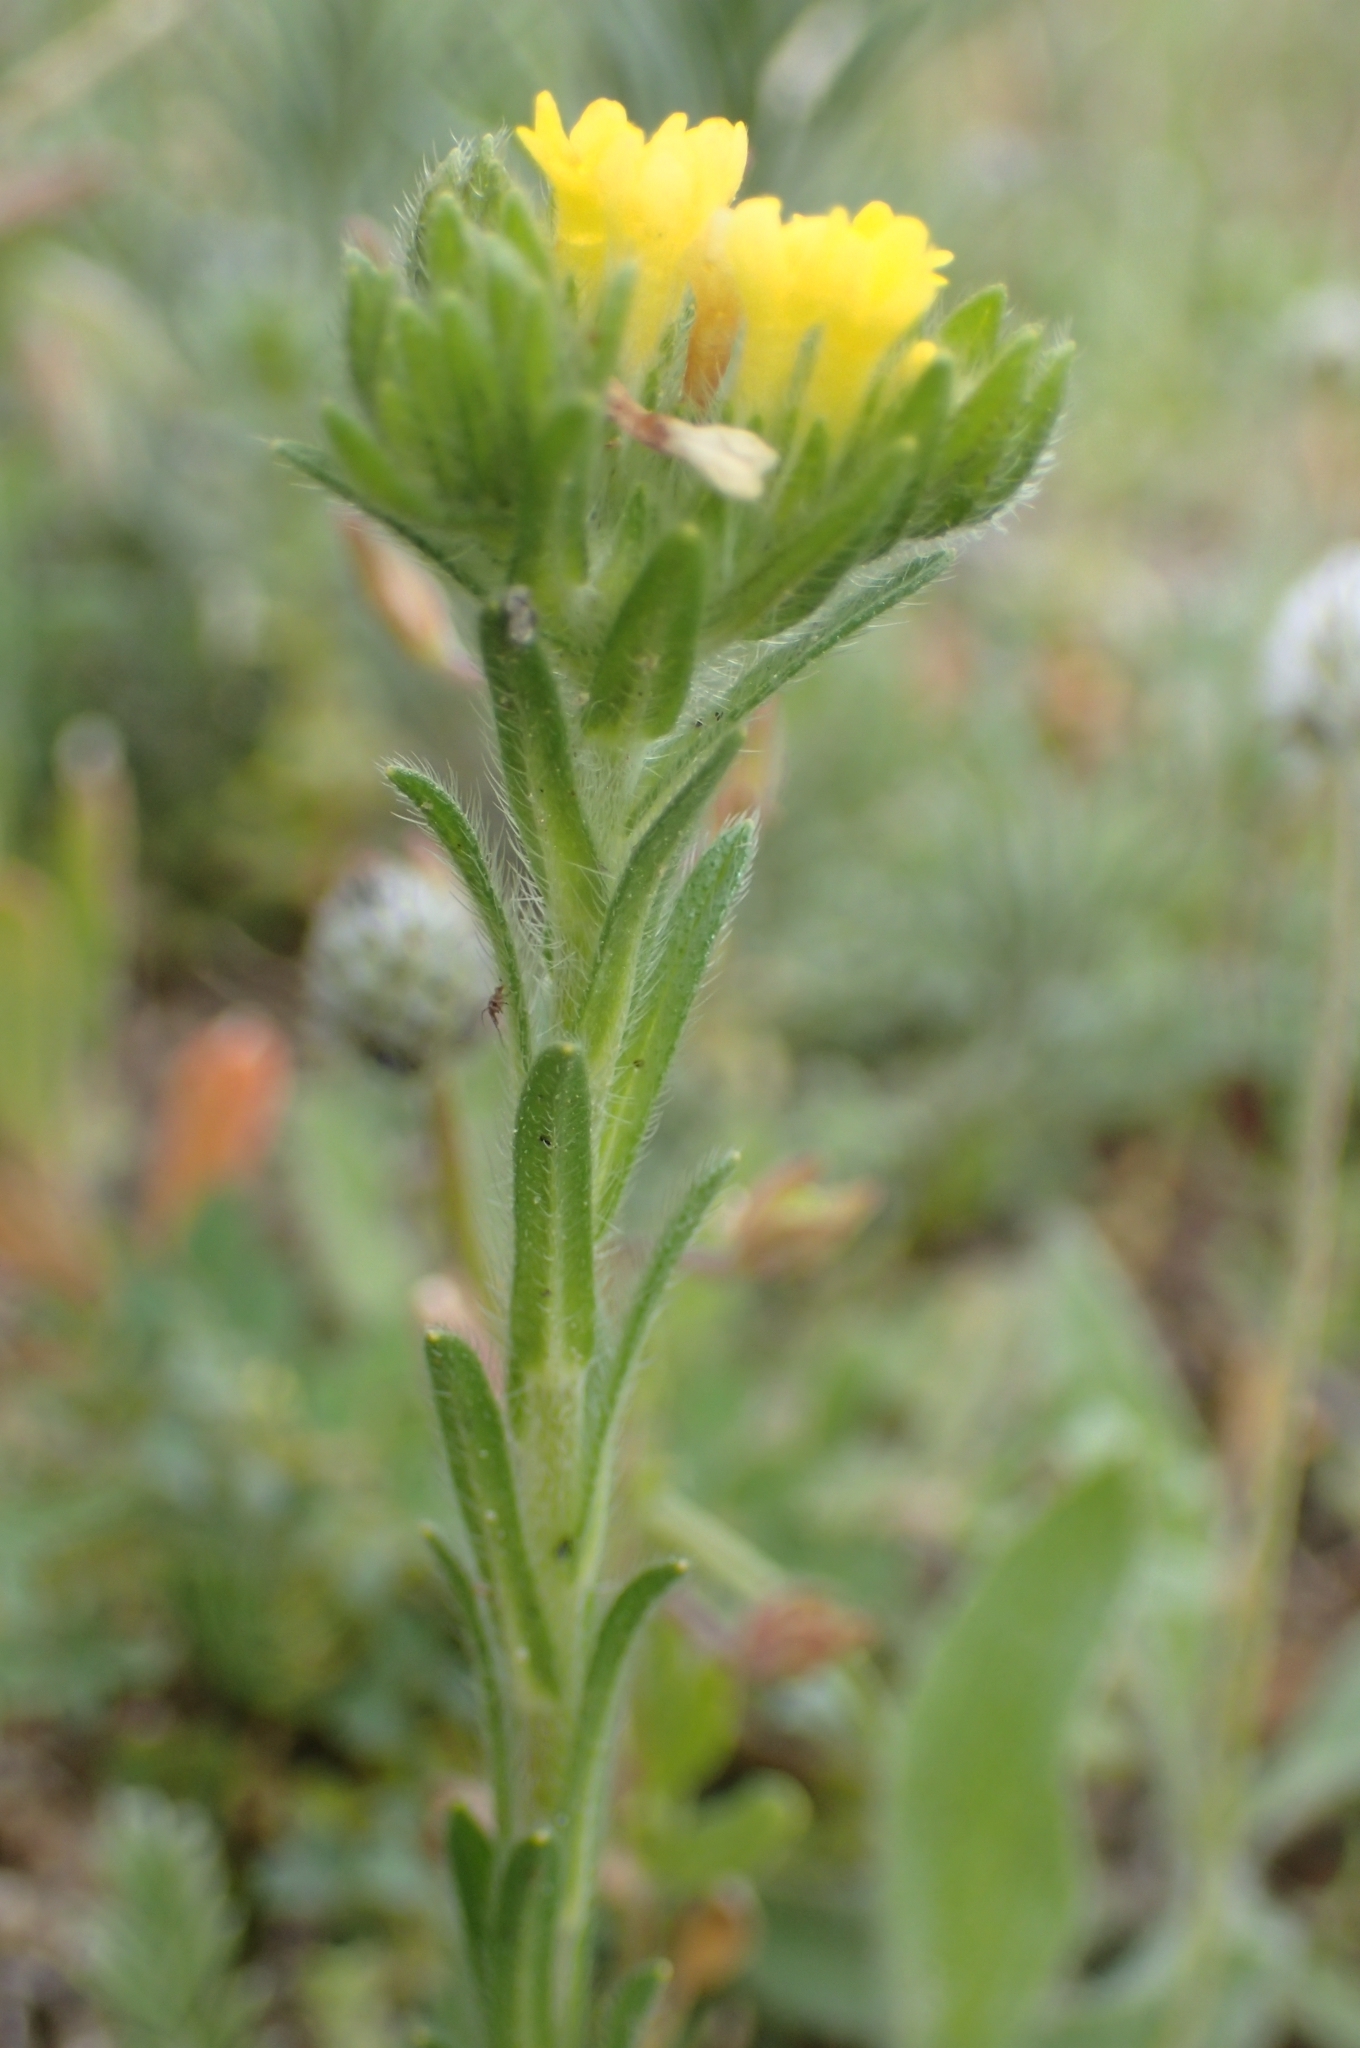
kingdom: Plantae
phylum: Tracheophyta
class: Magnoliopsida
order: Boraginales
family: Boraginaceae
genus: Neatostema
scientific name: Neatostema apulum
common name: Hairy sheepweed
